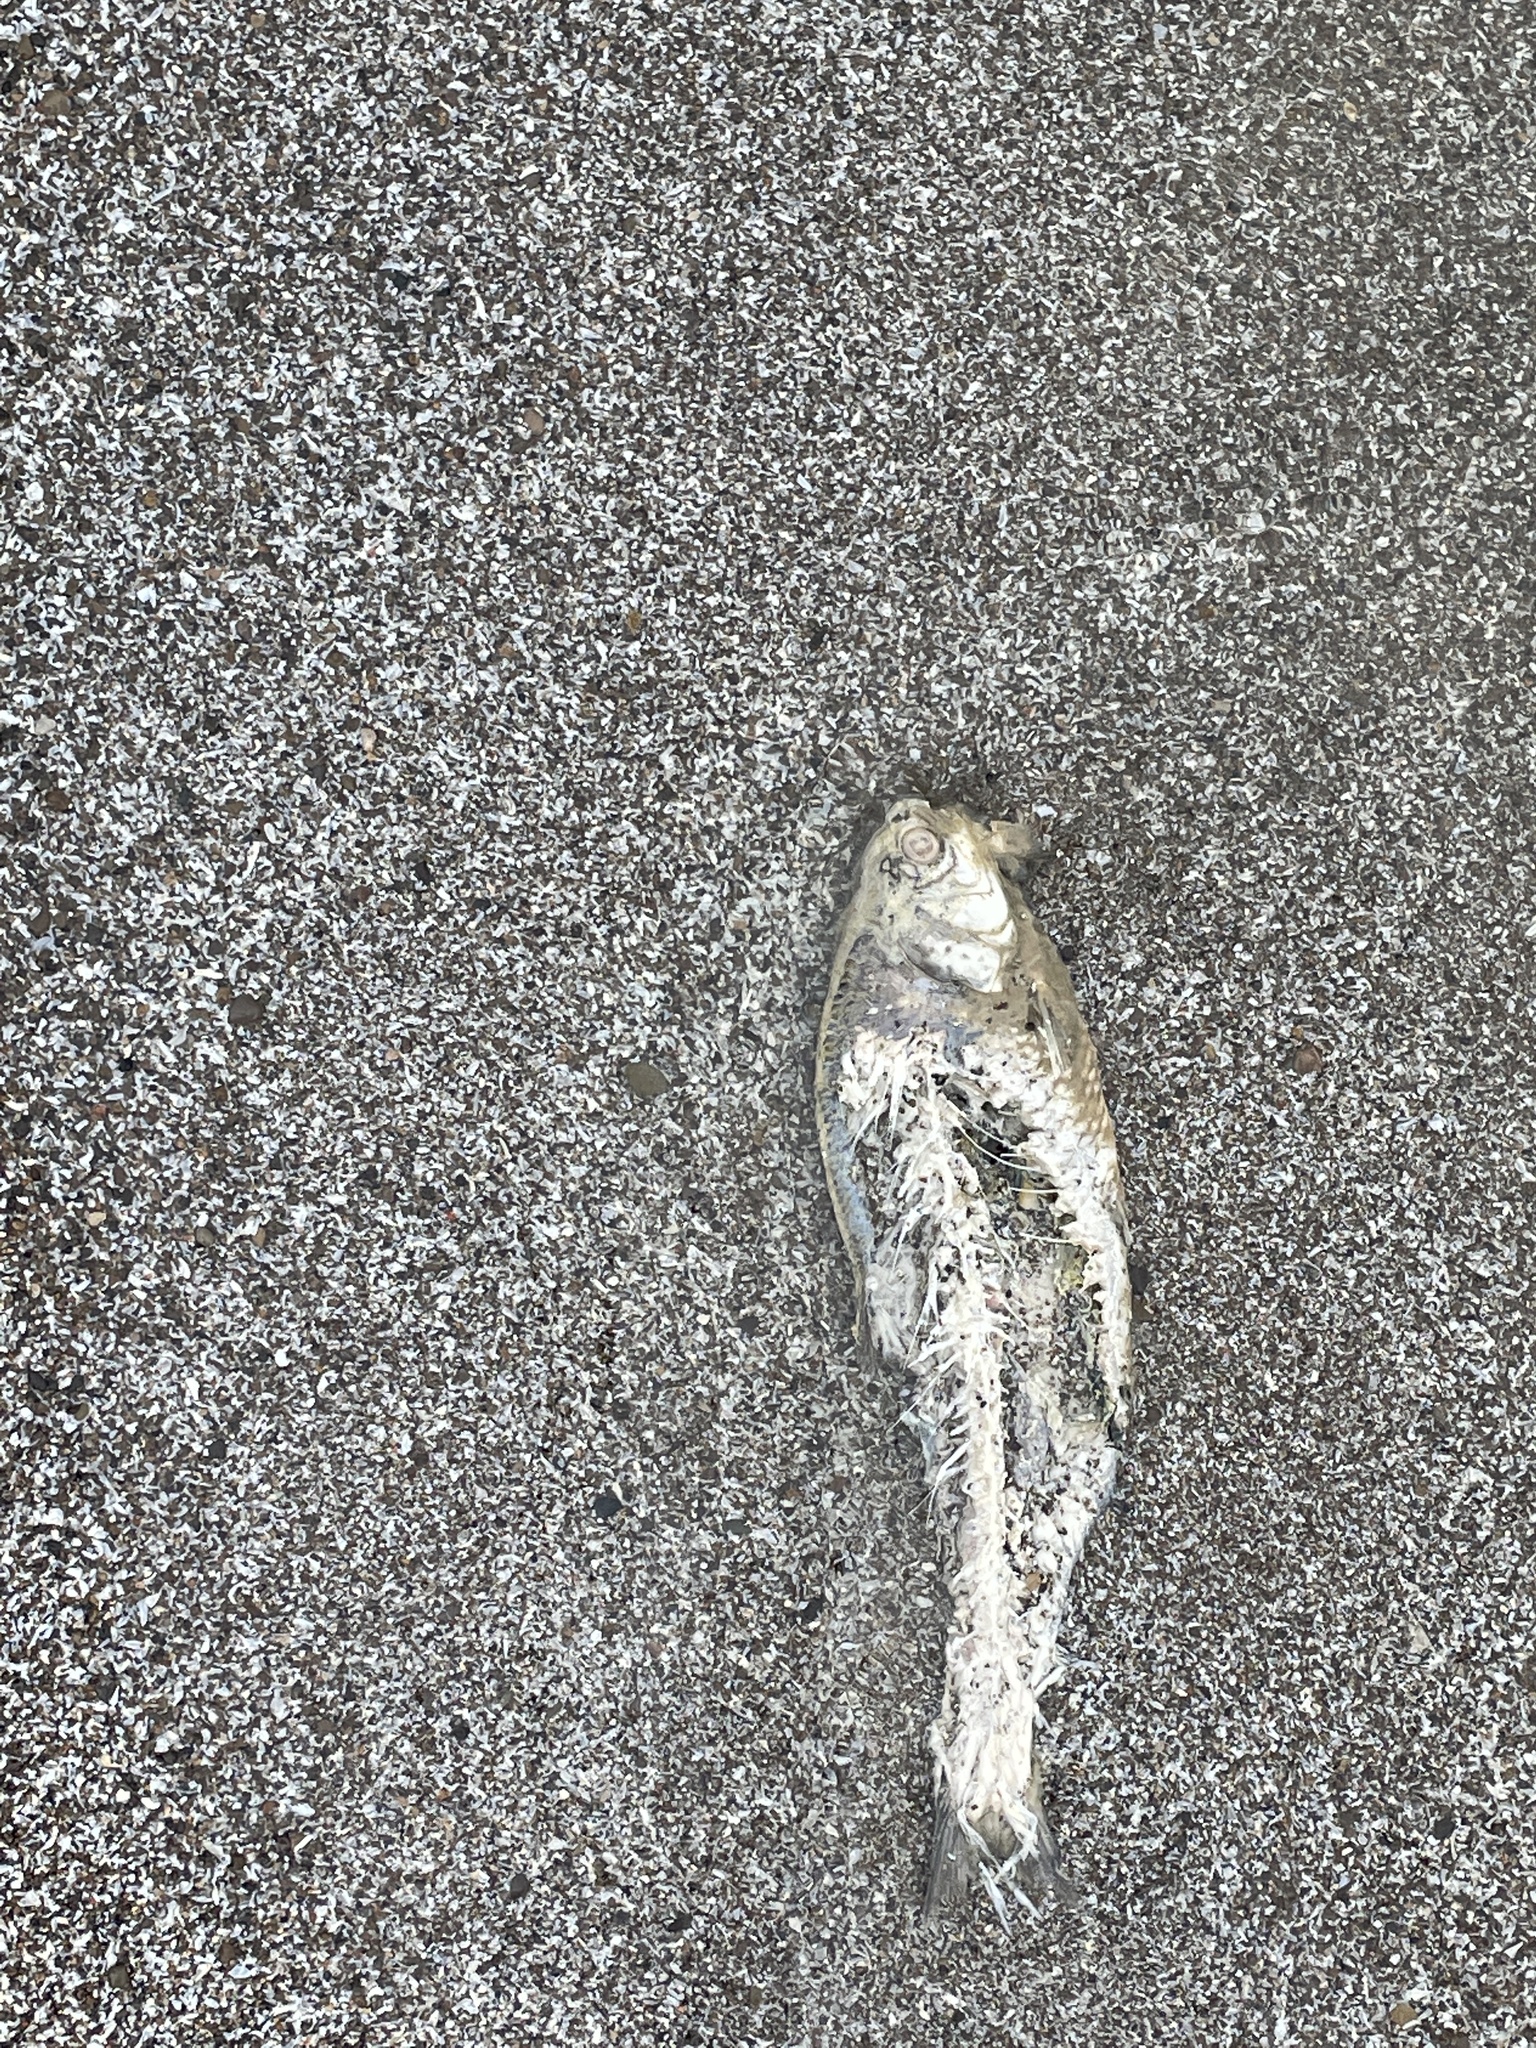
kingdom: Animalia
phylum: Chordata
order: Clupeiformes
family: Clupeidae
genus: Dorosoma
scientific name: Dorosoma cepedianum
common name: Gizzard shad
